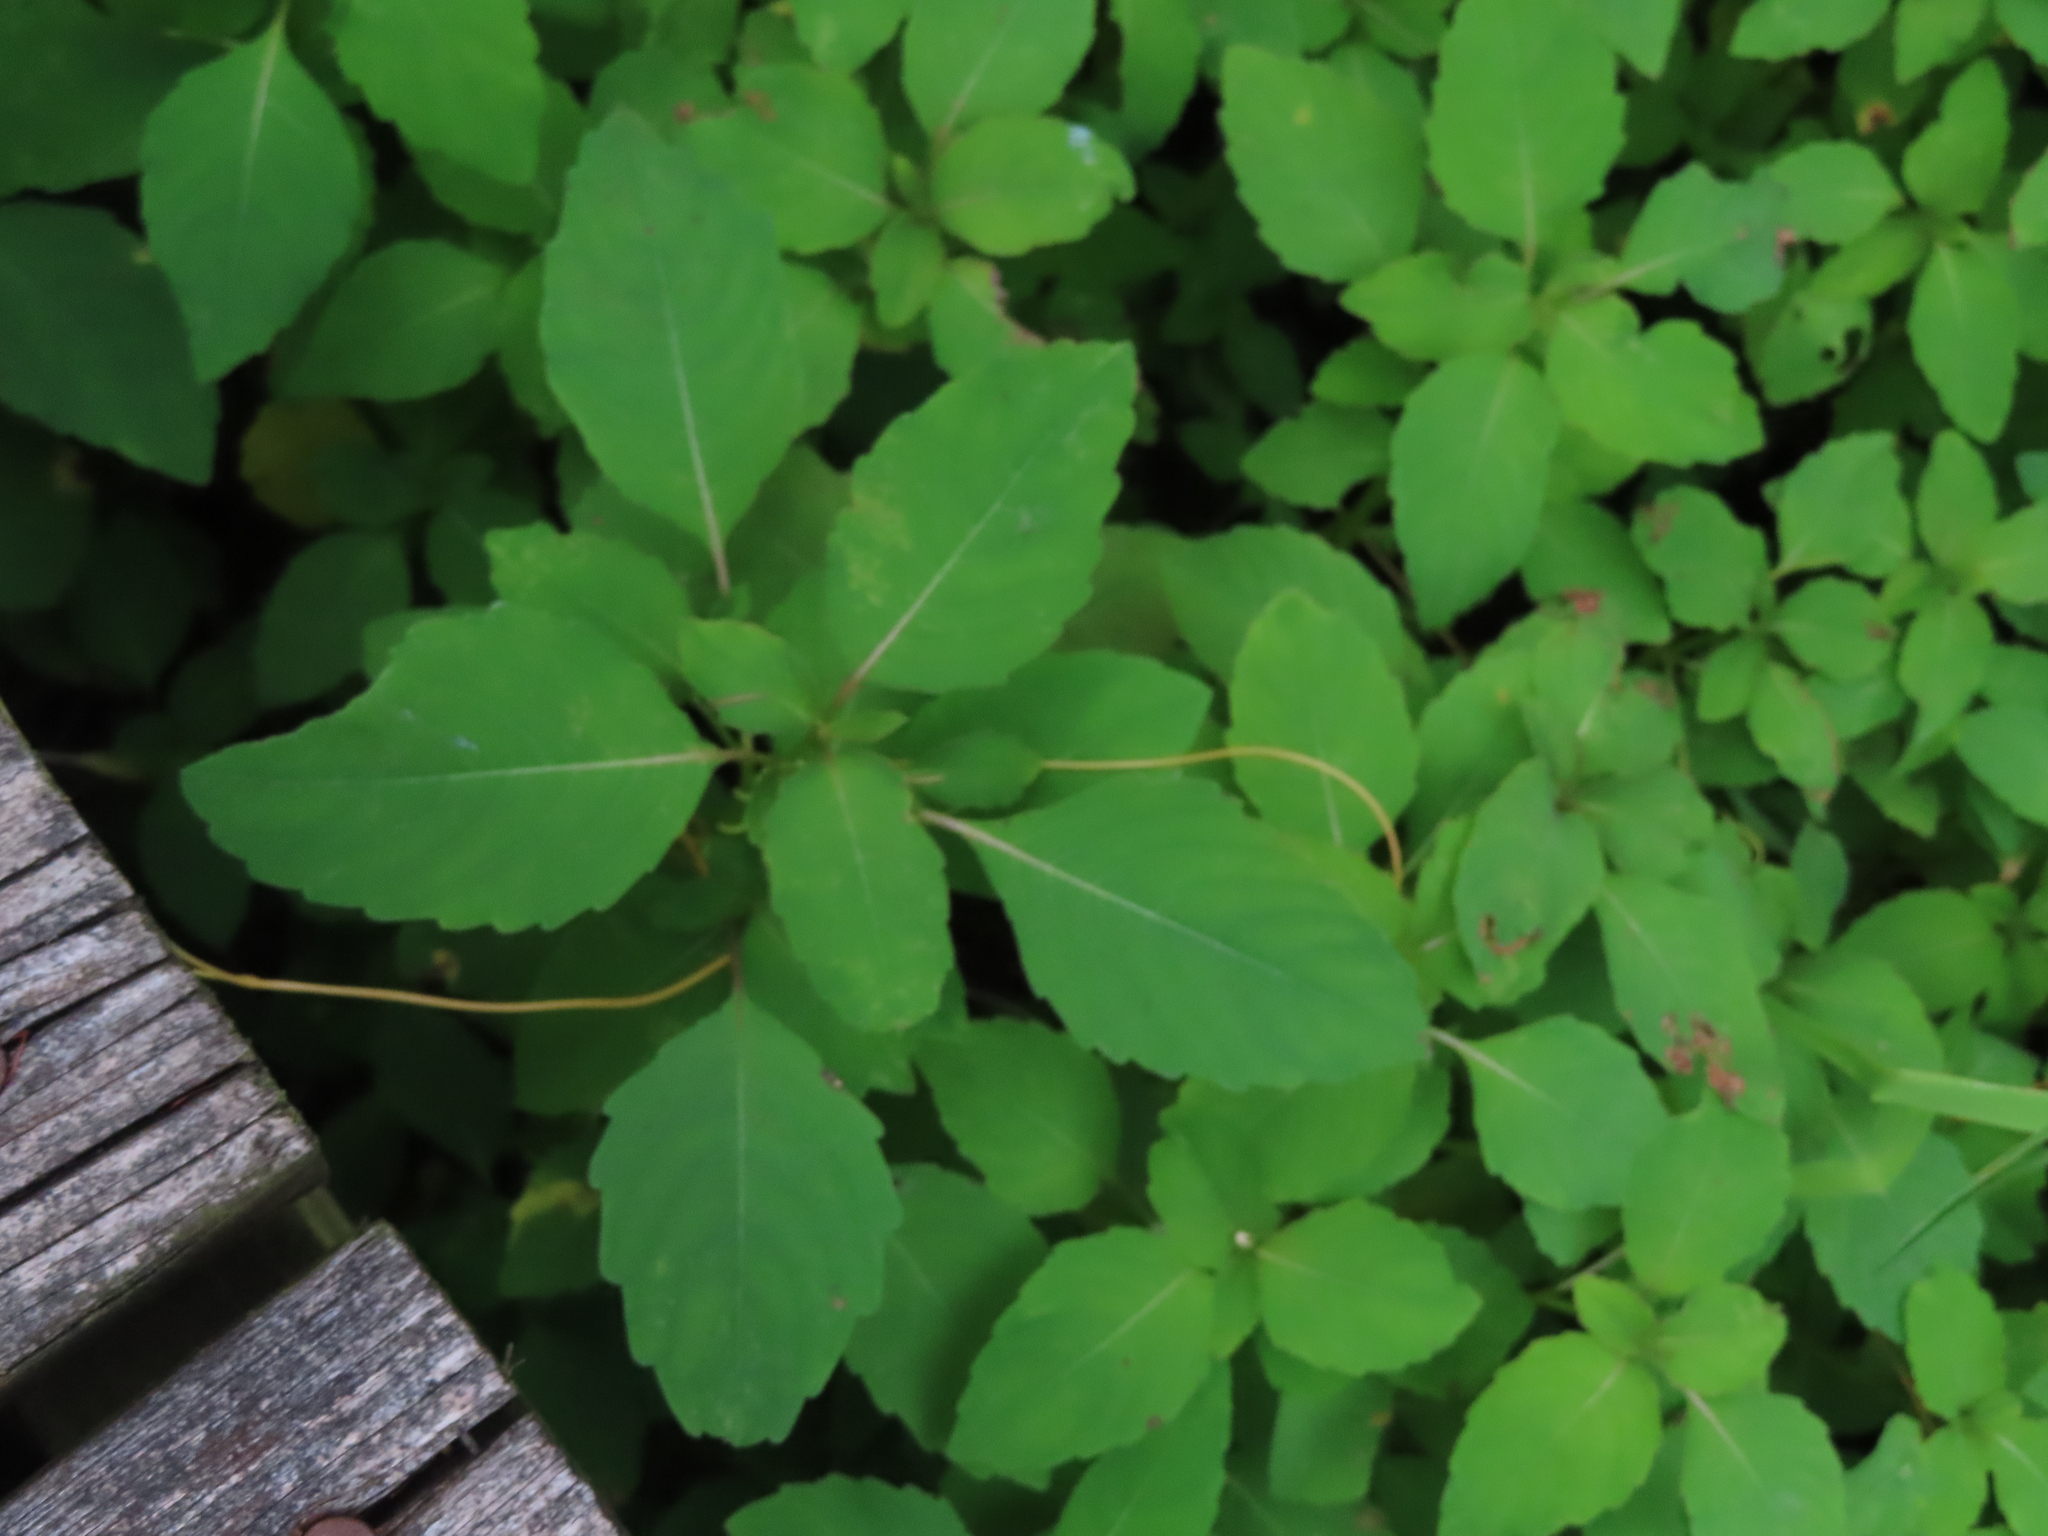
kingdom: Plantae
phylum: Tracheophyta
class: Magnoliopsida
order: Ericales
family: Balsaminaceae
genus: Impatiens
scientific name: Impatiens capensis
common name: Orange balsam
